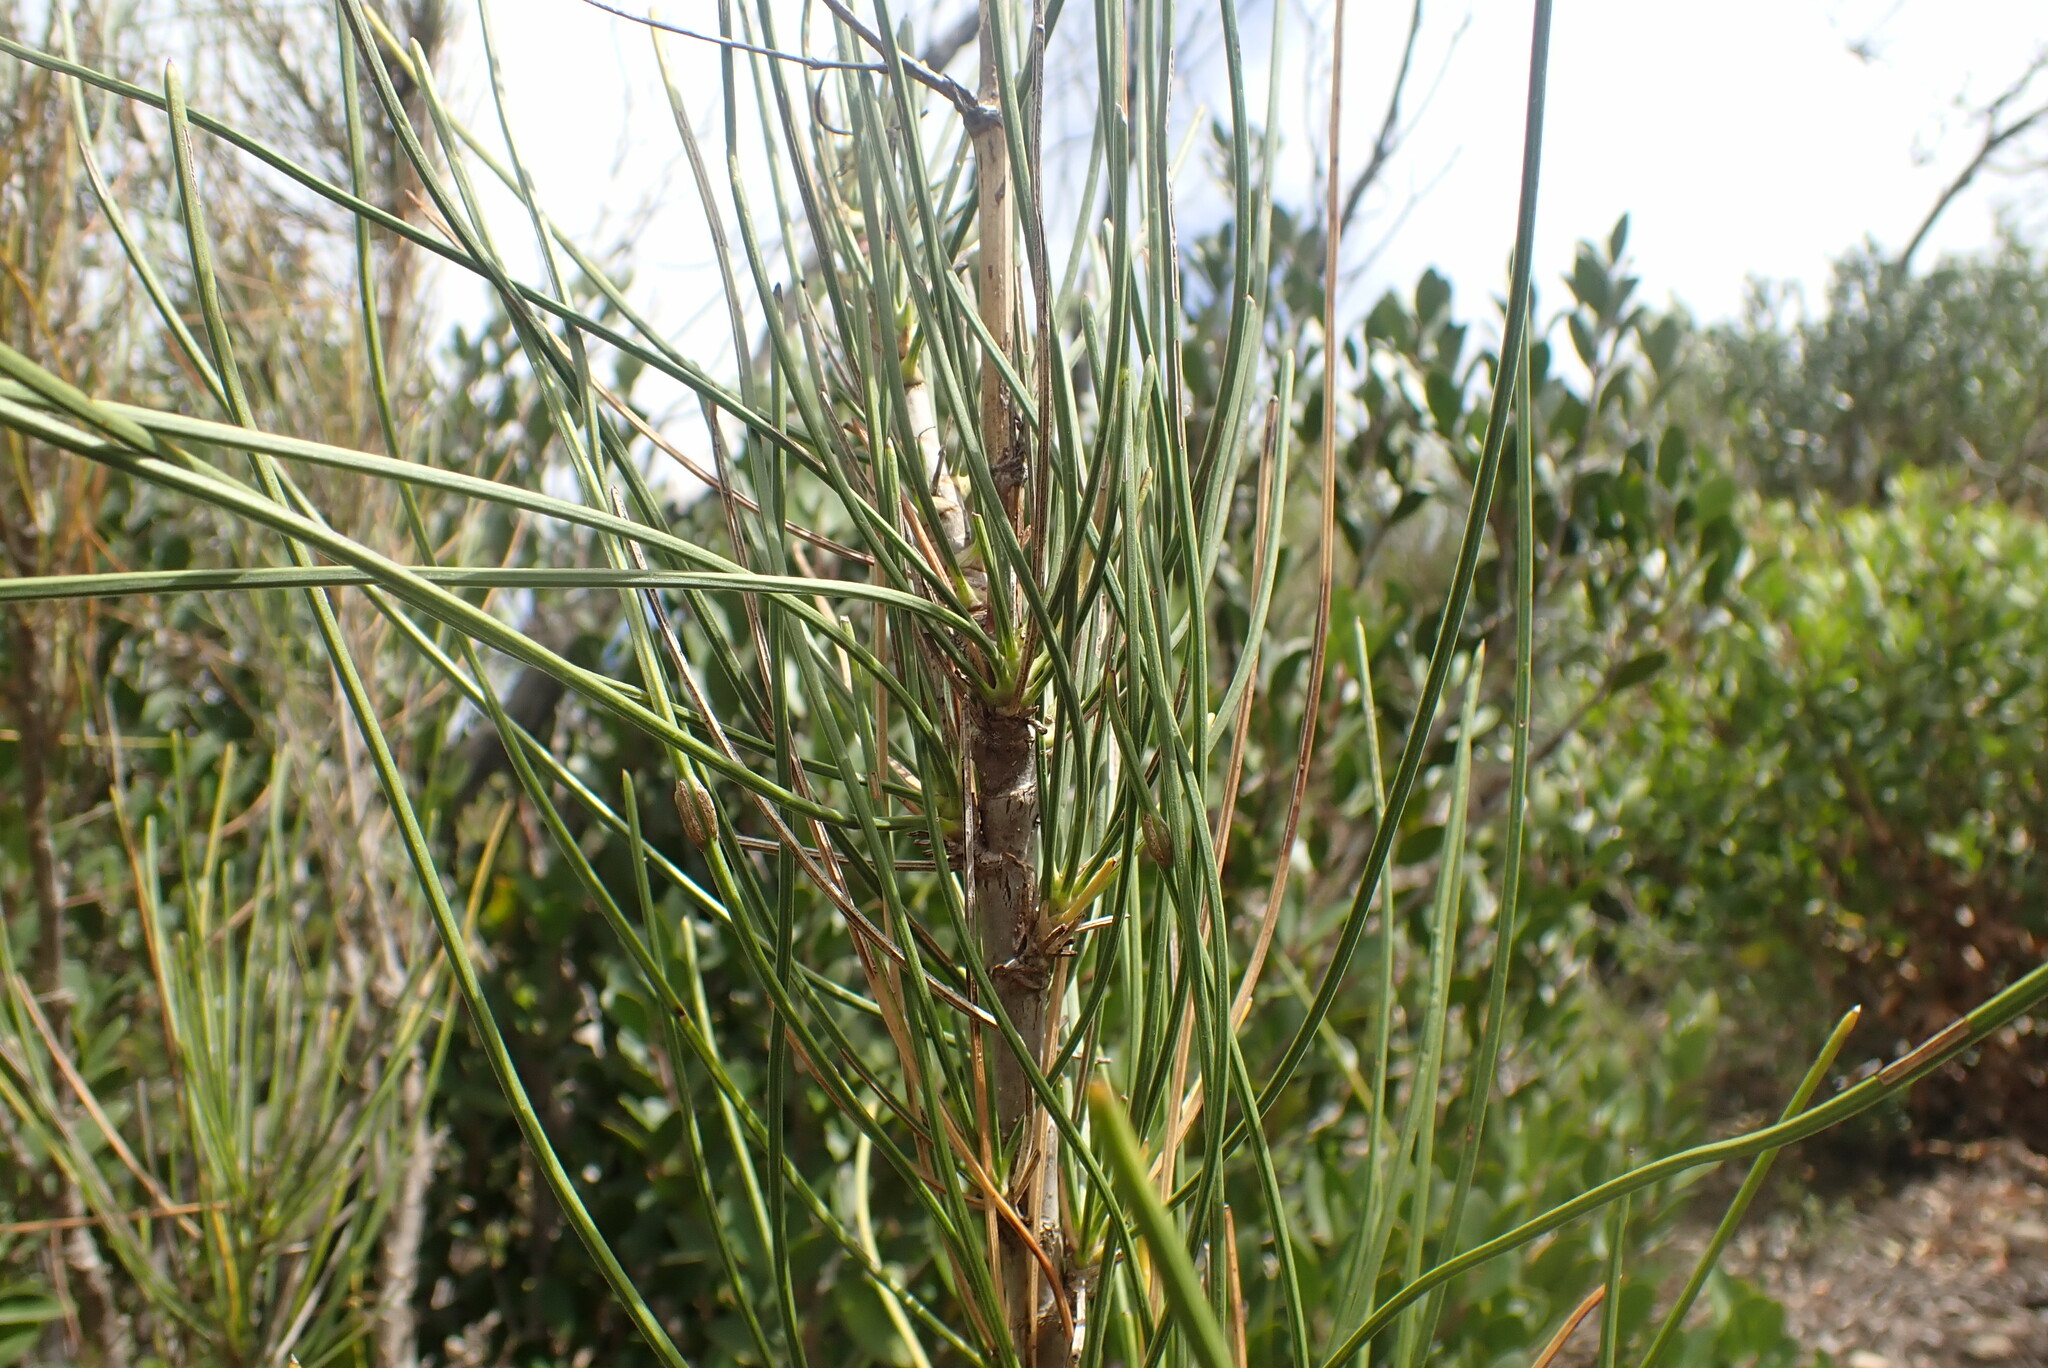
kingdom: Plantae
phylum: Tracheophyta
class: Magnoliopsida
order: Apiales
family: Apiaceae
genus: Anginon
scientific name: Anginon difforme
